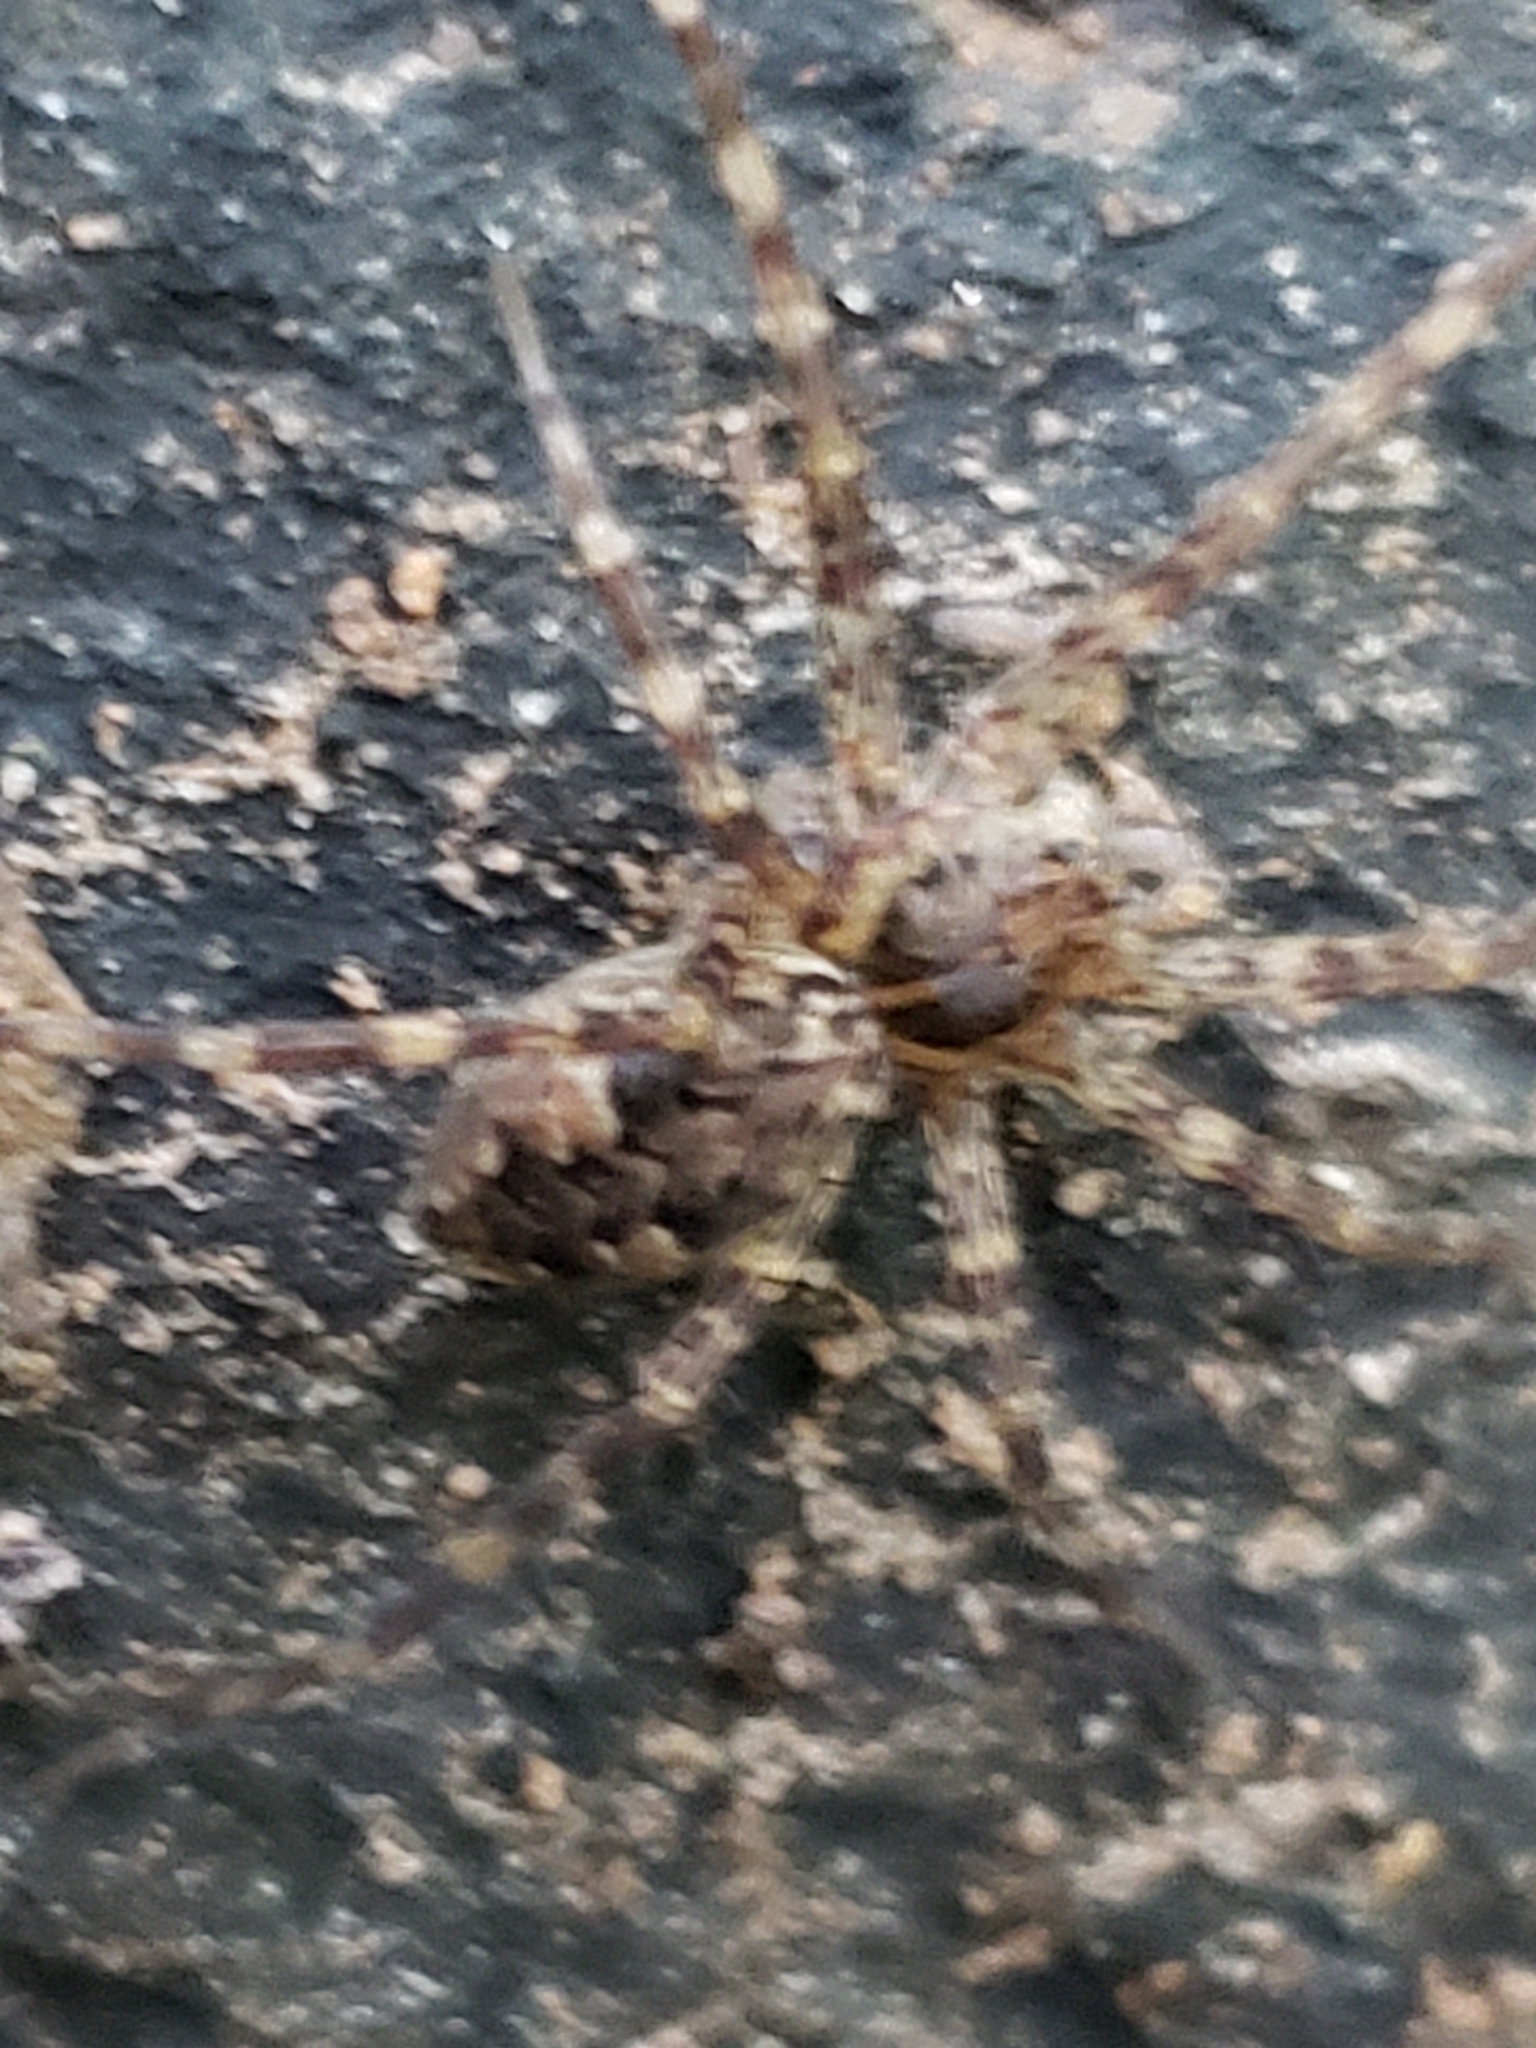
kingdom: Animalia
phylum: Arthropoda
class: Arachnida
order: Araneae
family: Pisauridae
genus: Dolomedes
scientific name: Dolomedes tenebrosus
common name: Dark fishing spider
